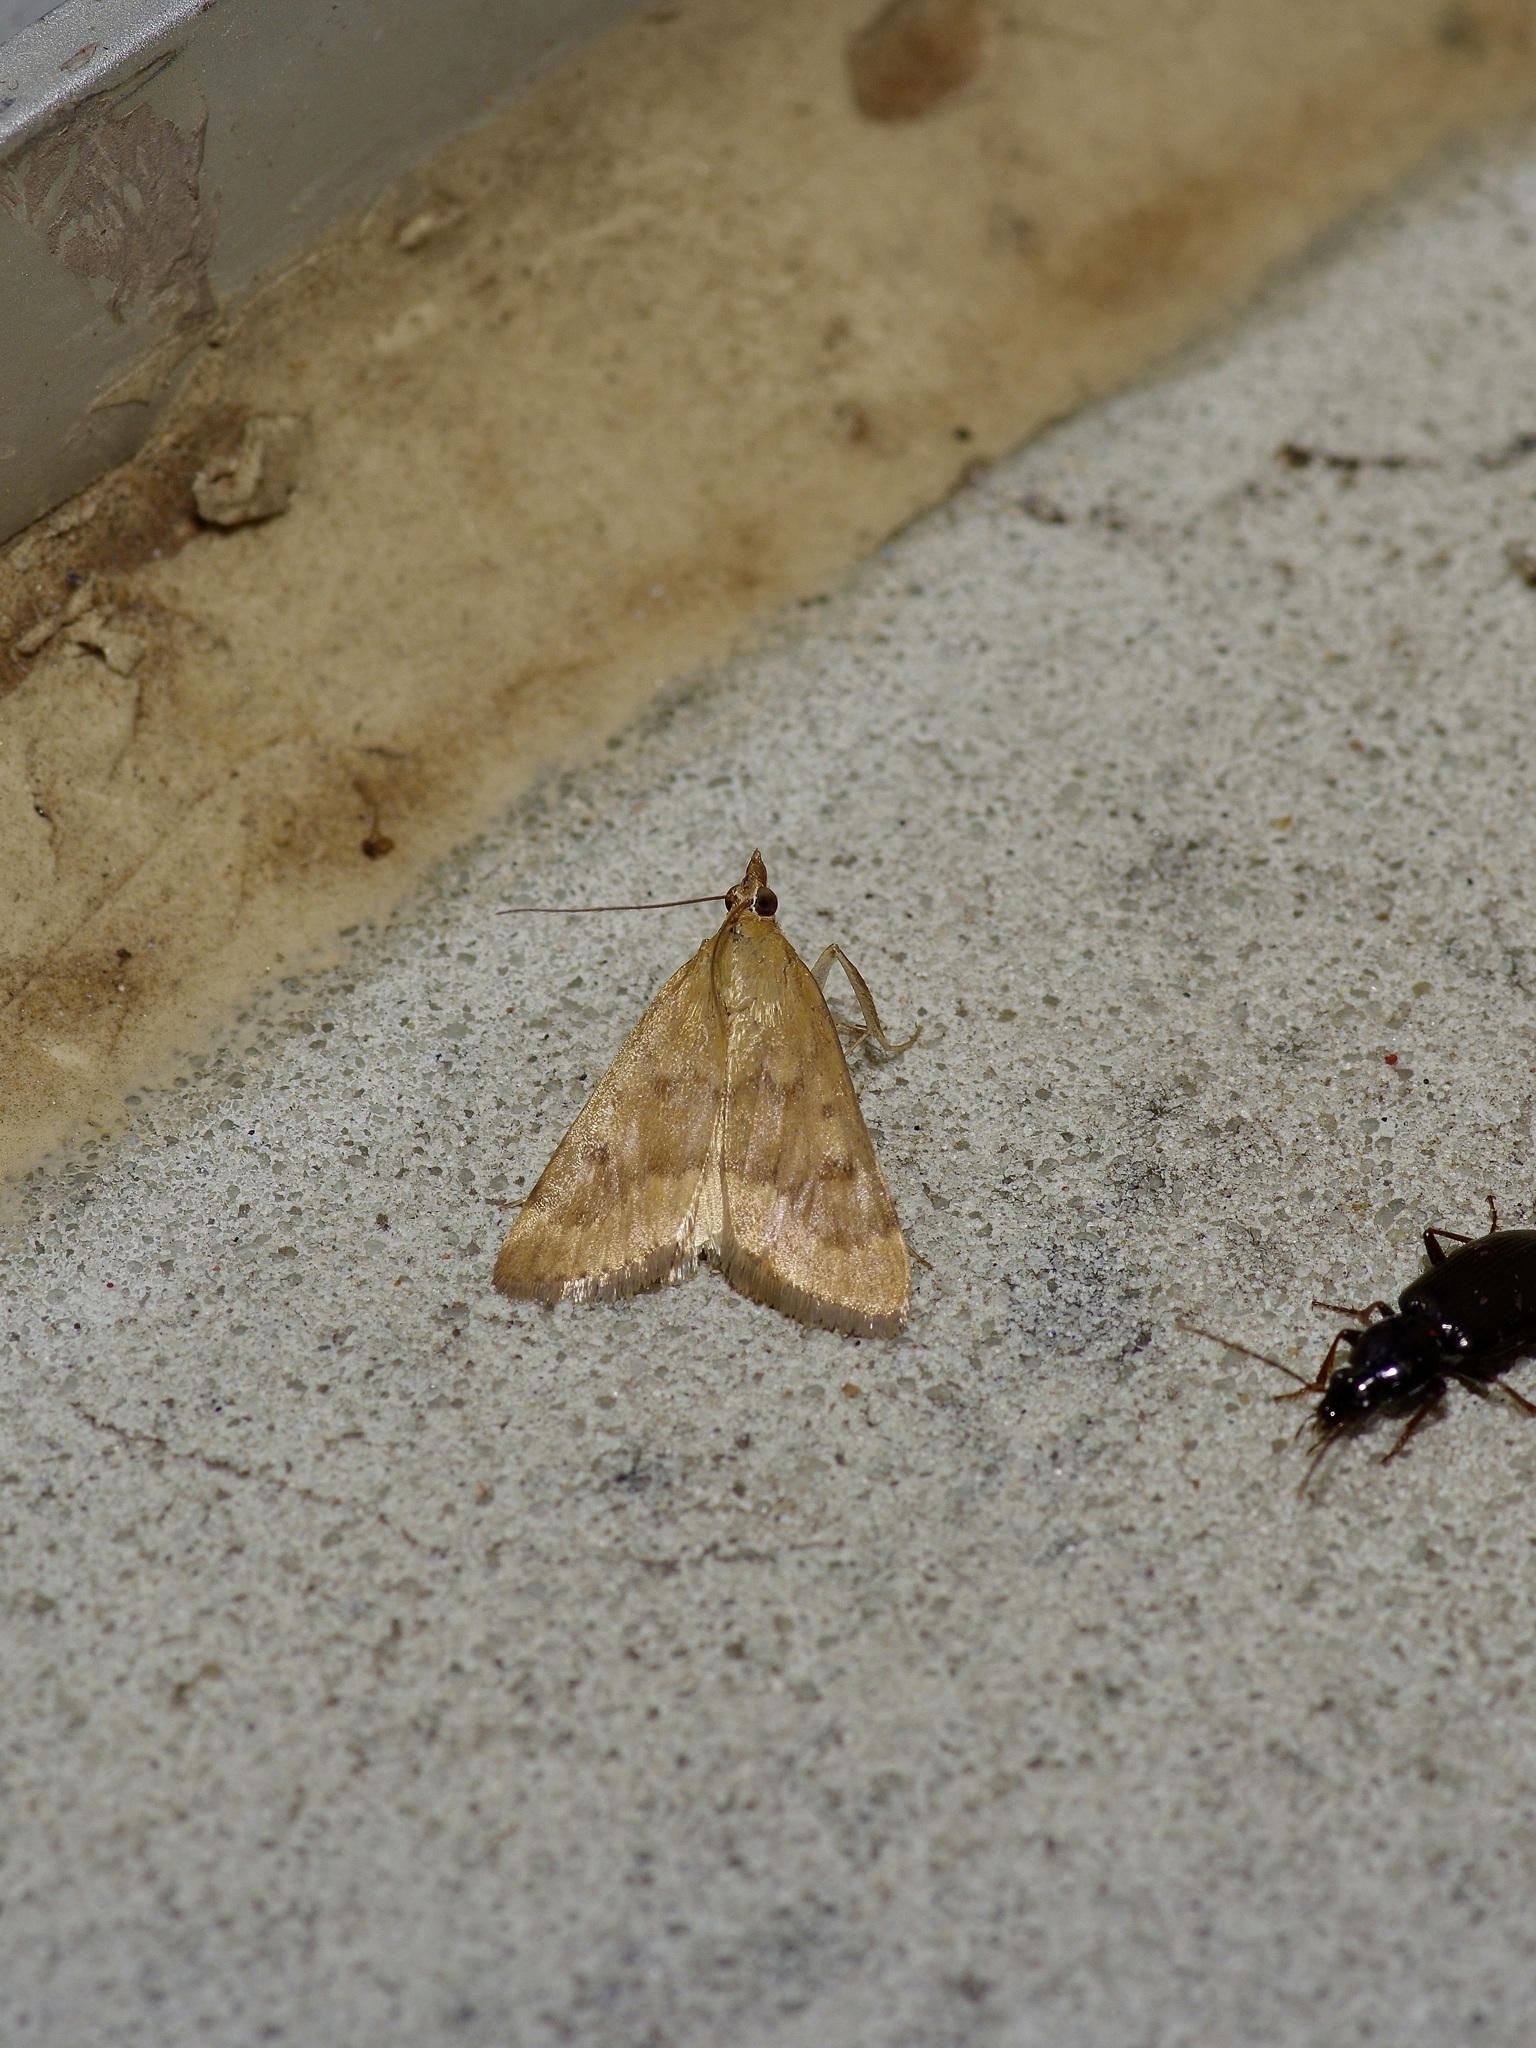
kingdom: Animalia
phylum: Arthropoda
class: Insecta
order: Lepidoptera
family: Crambidae
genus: Achyra
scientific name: Achyra rantalis
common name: Garden webworm
